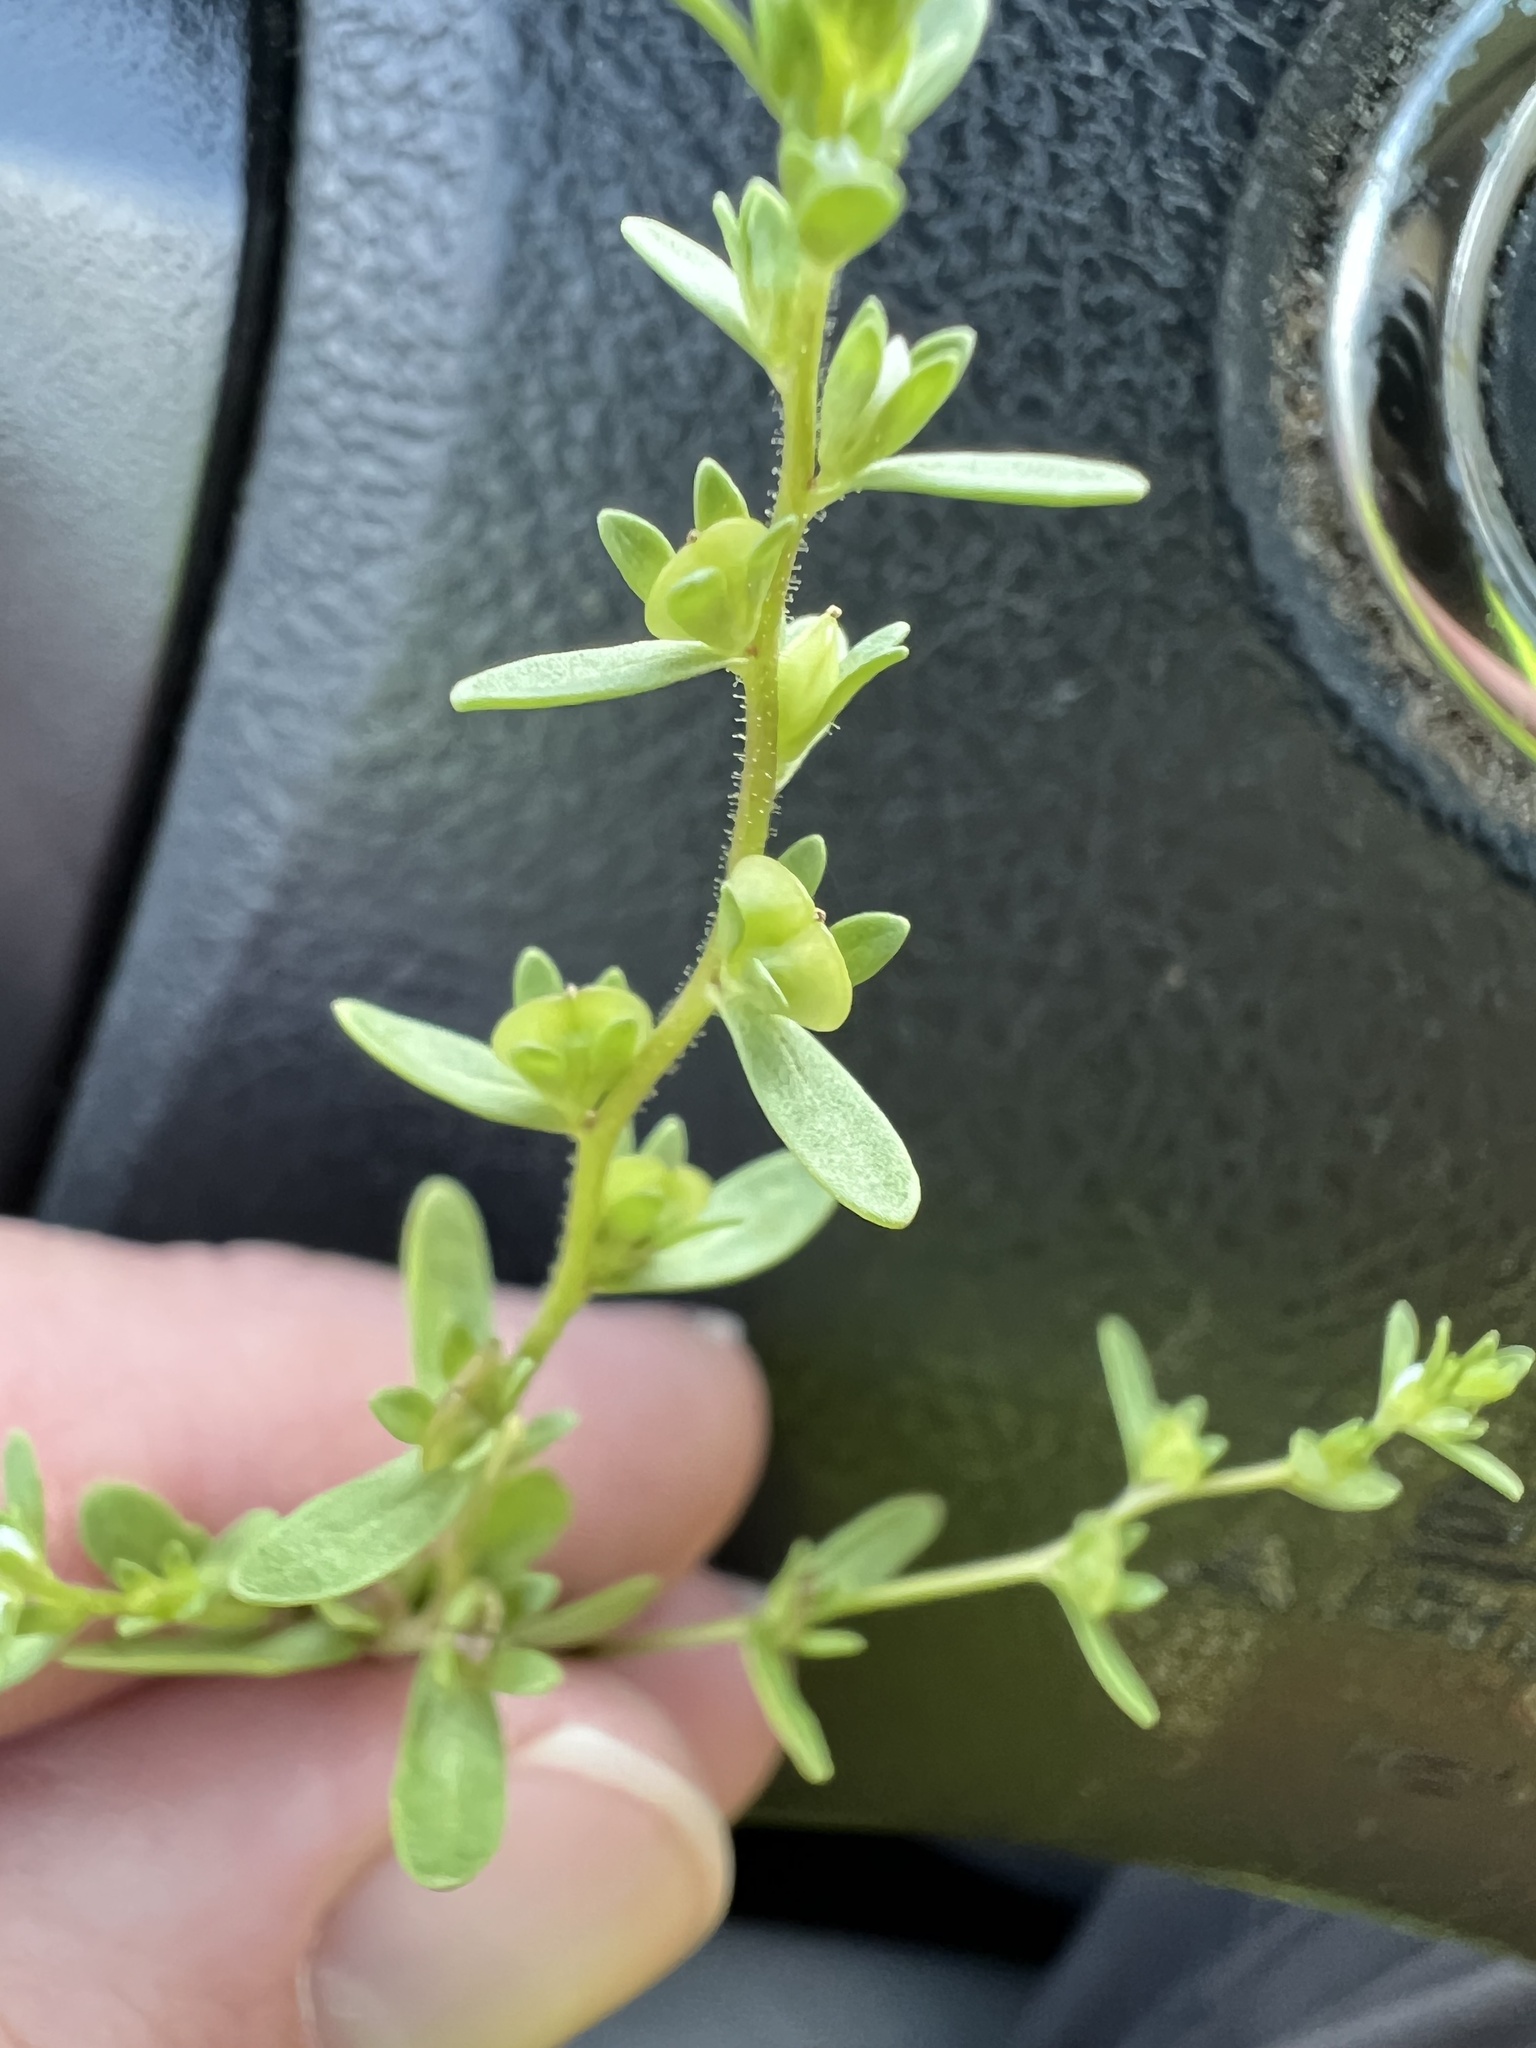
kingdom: Plantae
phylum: Tracheophyta
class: Magnoliopsida
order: Lamiales
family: Plantaginaceae
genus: Veronica
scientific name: Veronica peregrina
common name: Neckweed
